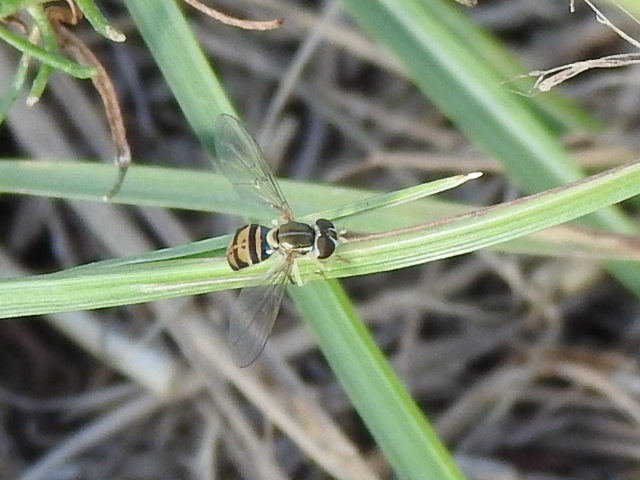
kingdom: Animalia
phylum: Arthropoda
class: Insecta
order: Diptera
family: Syrphidae
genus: Toxomerus
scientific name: Toxomerus marginatus
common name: Syrphid fly
